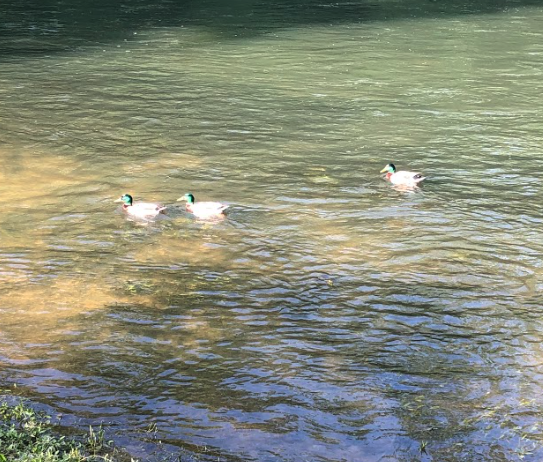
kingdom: Animalia
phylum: Chordata
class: Aves
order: Anseriformes
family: Anatidae
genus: Anas
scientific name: Anas platyrhynchos
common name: Mallard
